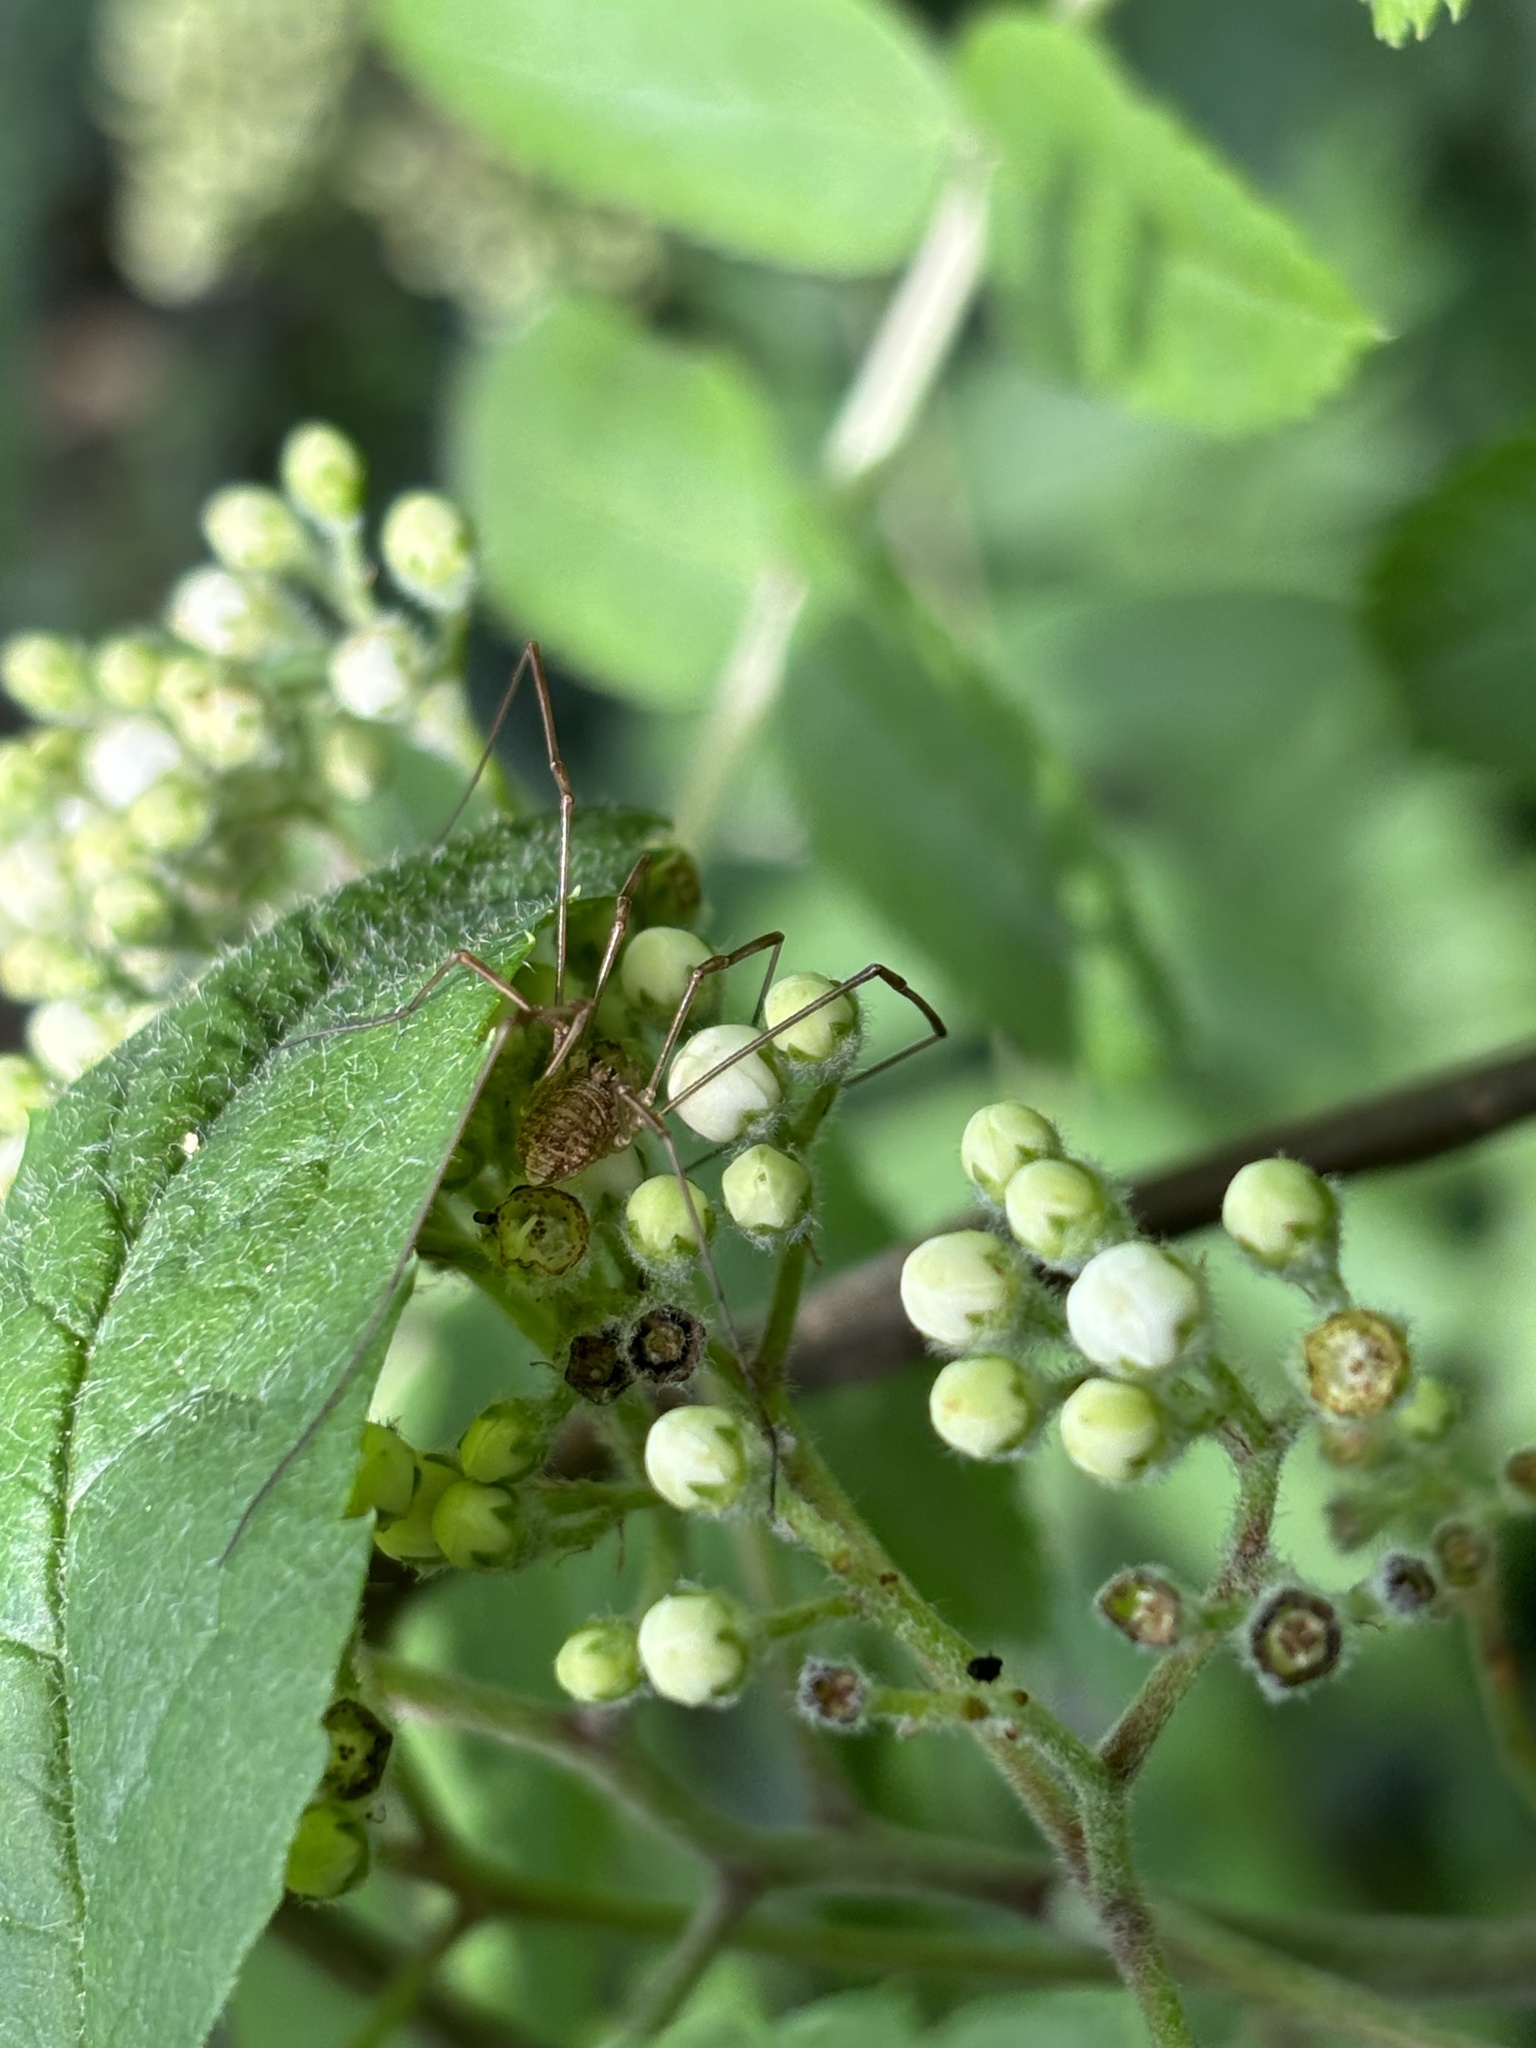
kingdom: Animalia
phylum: Arthropoda
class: Arachnida
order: Opiliones
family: Phalangiidae
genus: Rilaena
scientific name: Rilaena triangularis
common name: Spring harvestman
